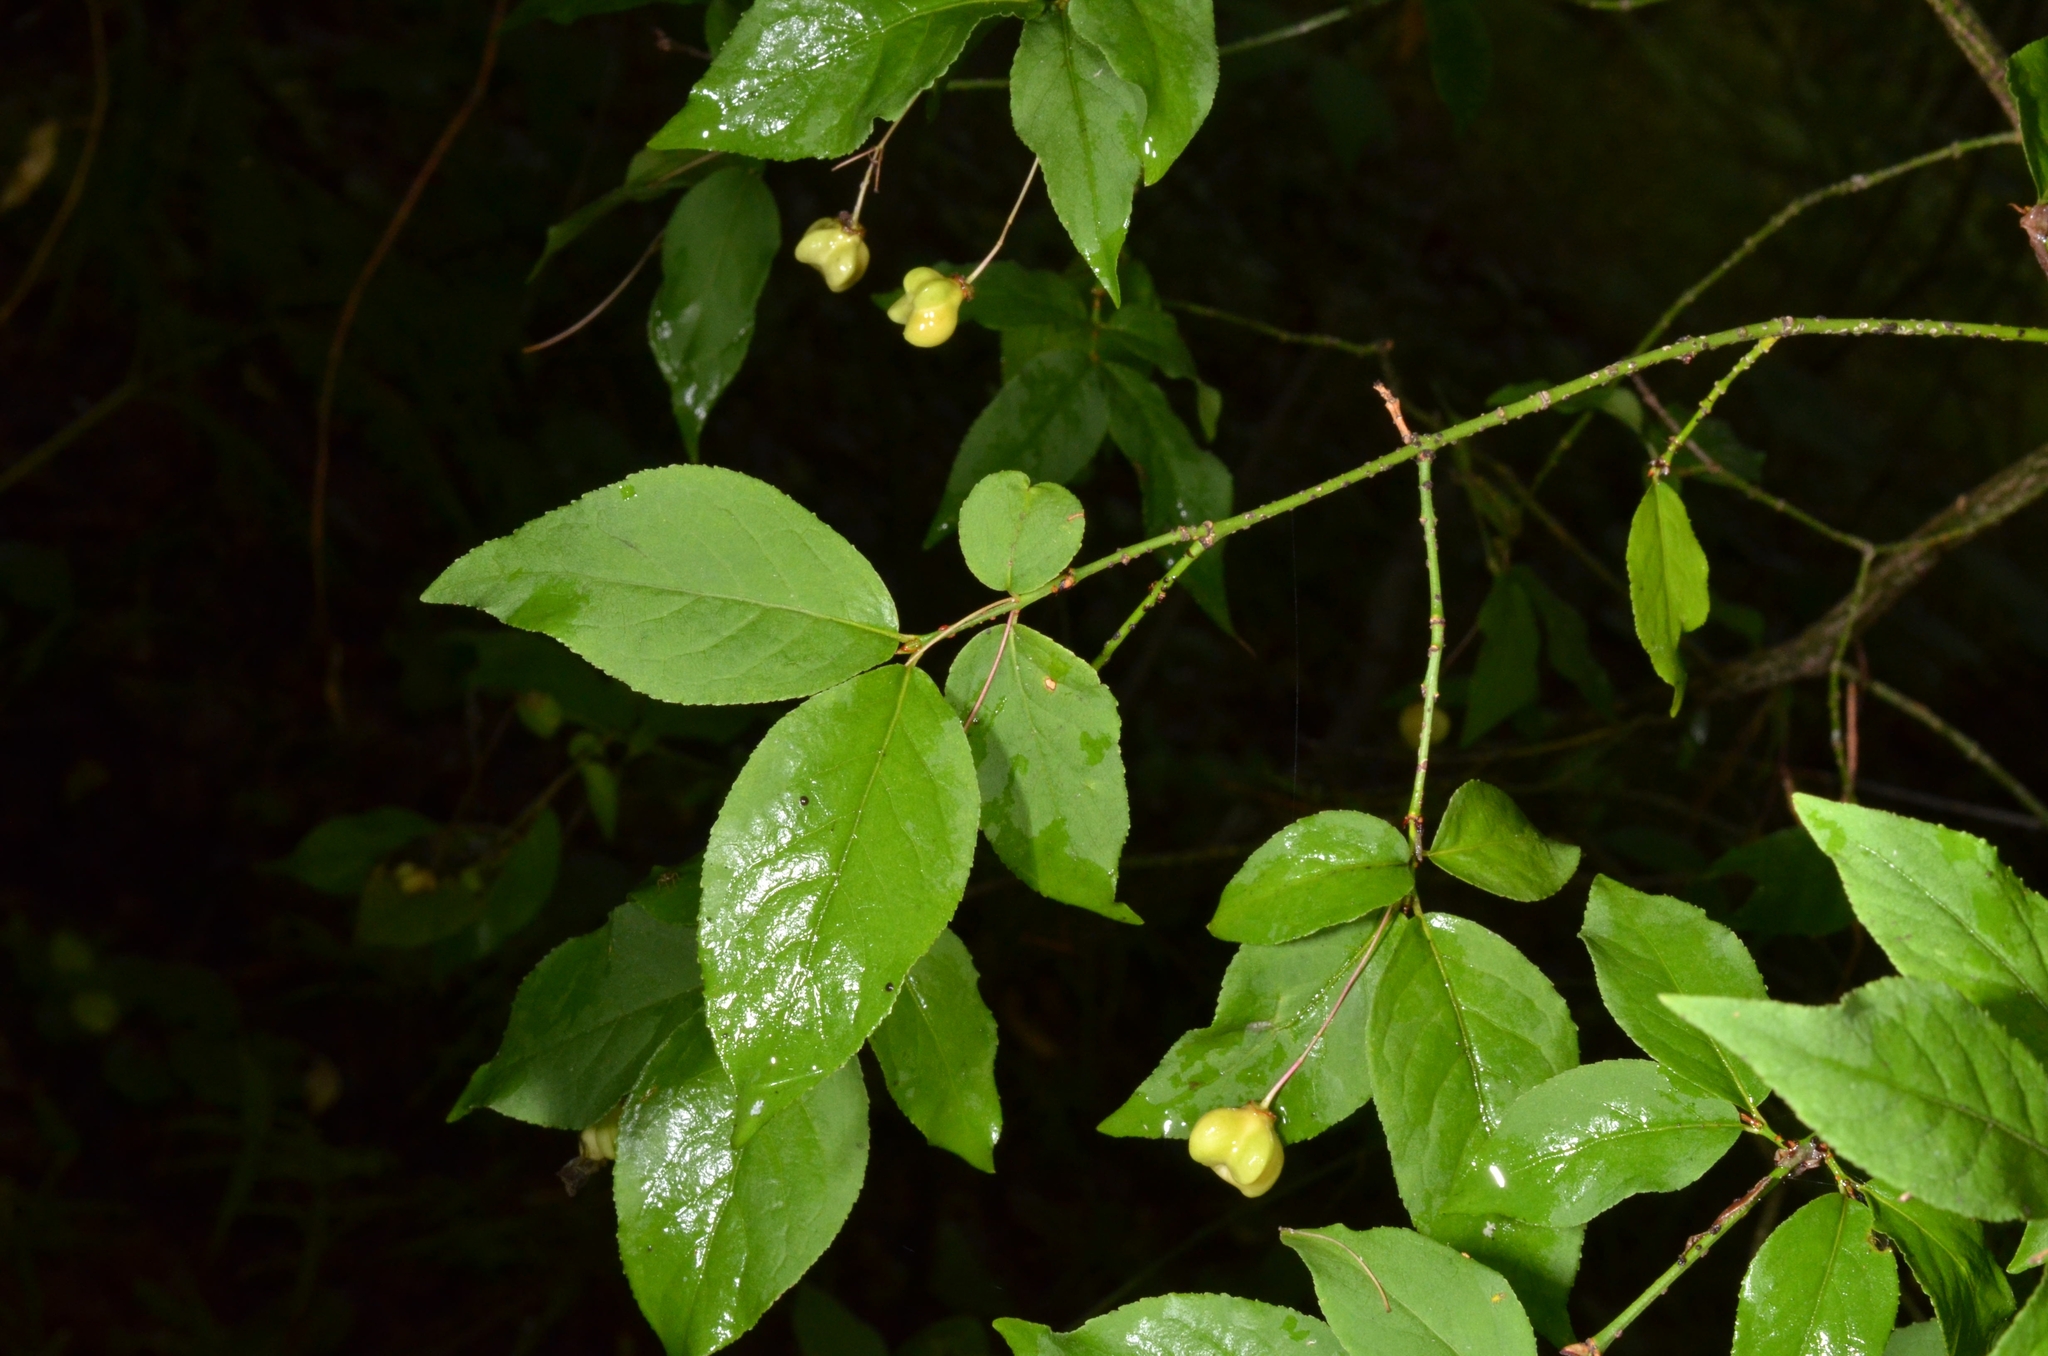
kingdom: Plantae
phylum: Tracheophyta
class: Magnoliopsida
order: Celastrales
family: Celastraceae
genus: Euonymus
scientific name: Euonymus verrucosus
